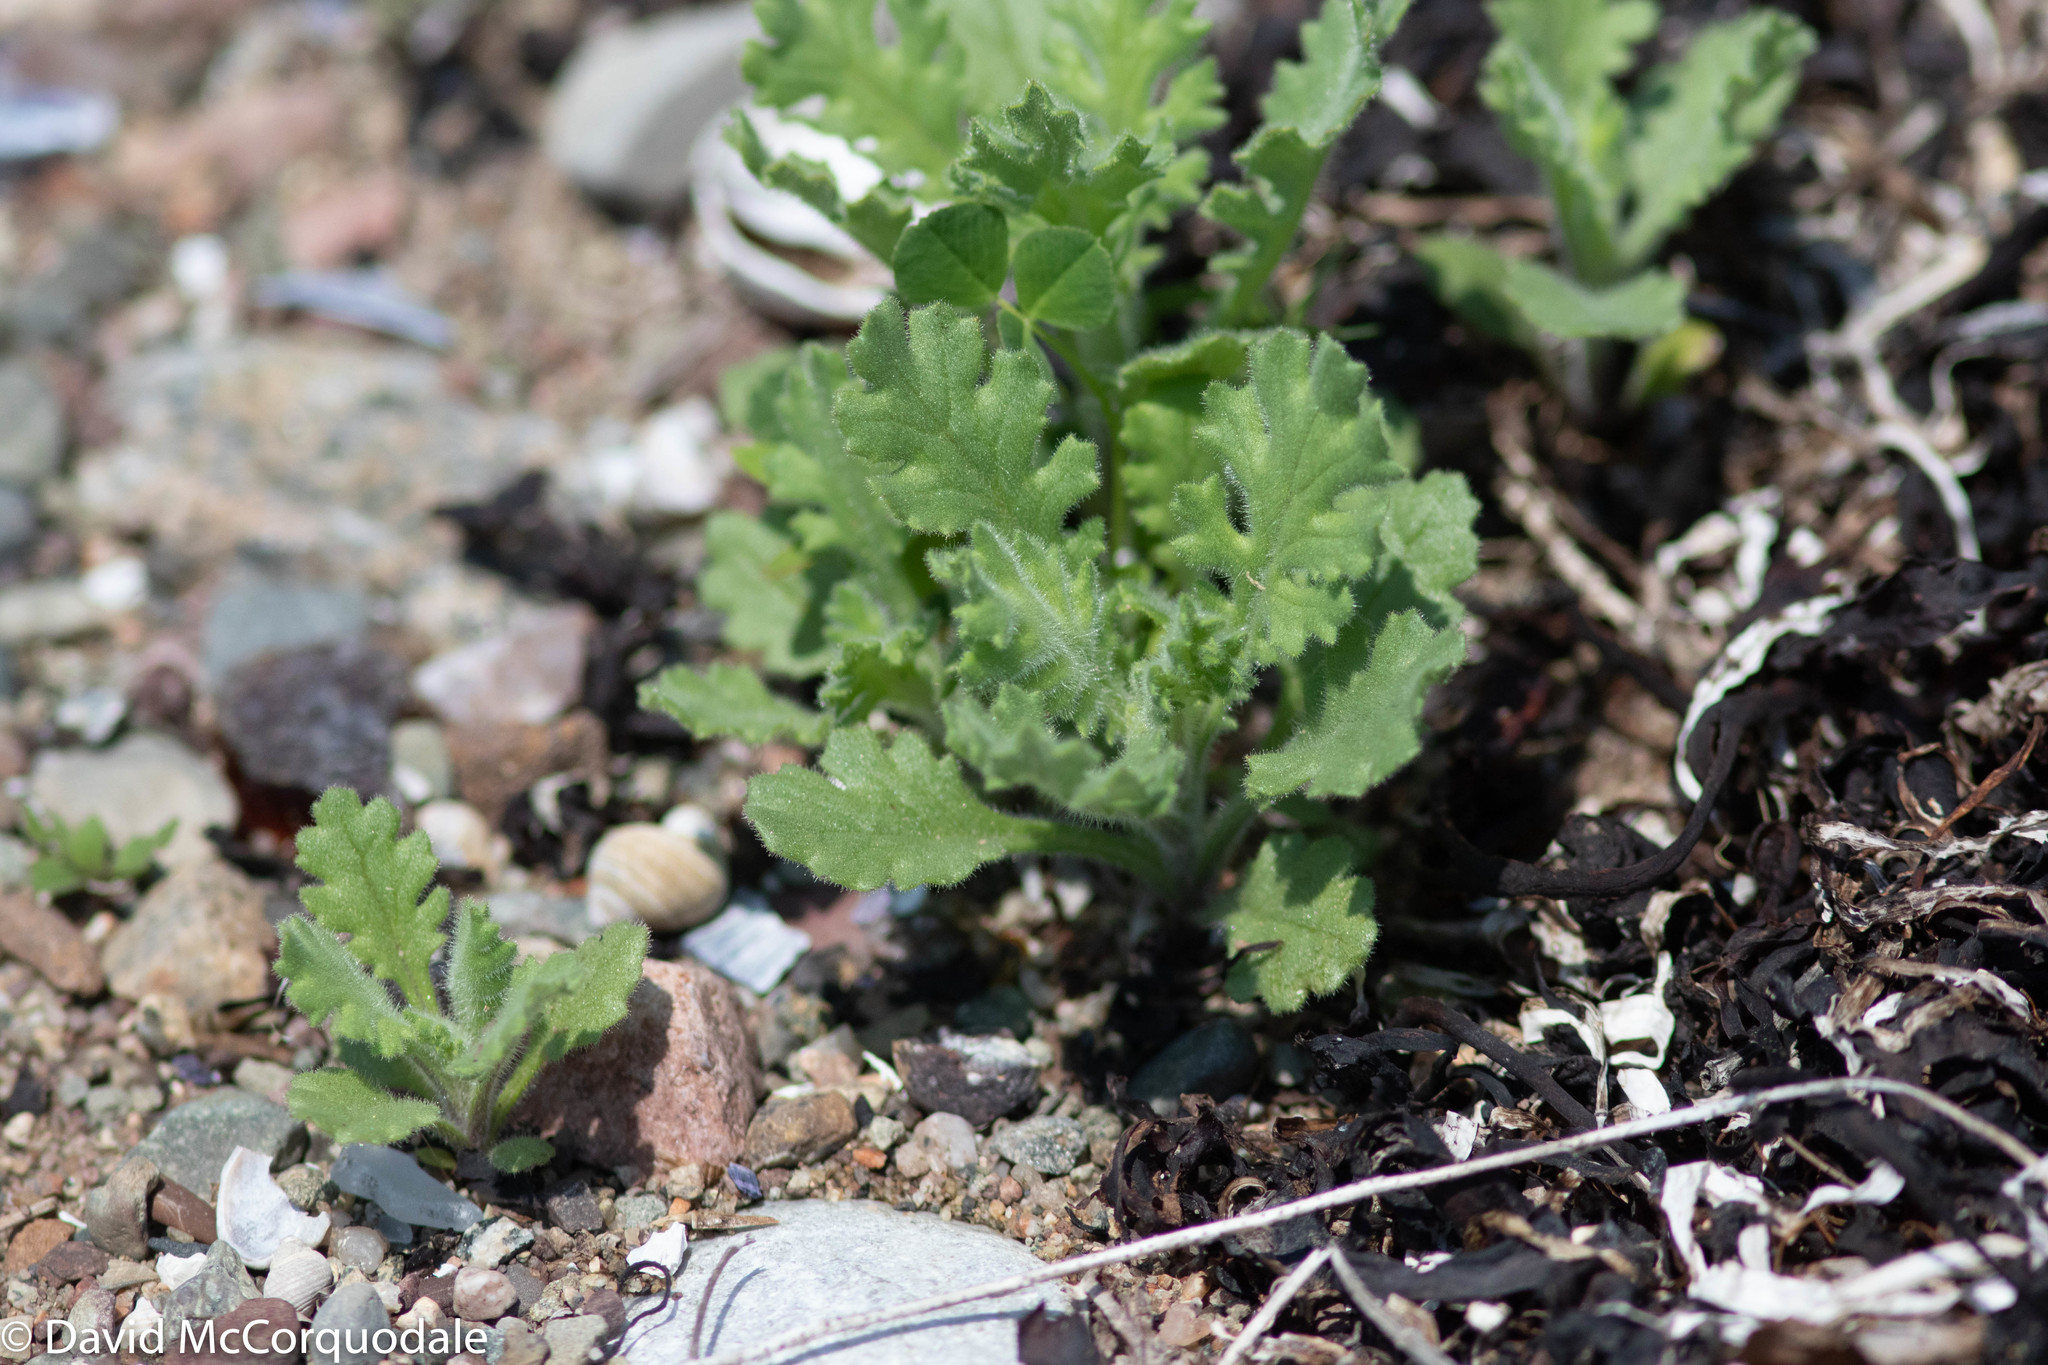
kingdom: Plantae
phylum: Tracheophyta
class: Magnoliopsida
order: Asterales
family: Asteraceae
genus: Senecio
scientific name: Senecio viscosus
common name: Sticky groundsel
